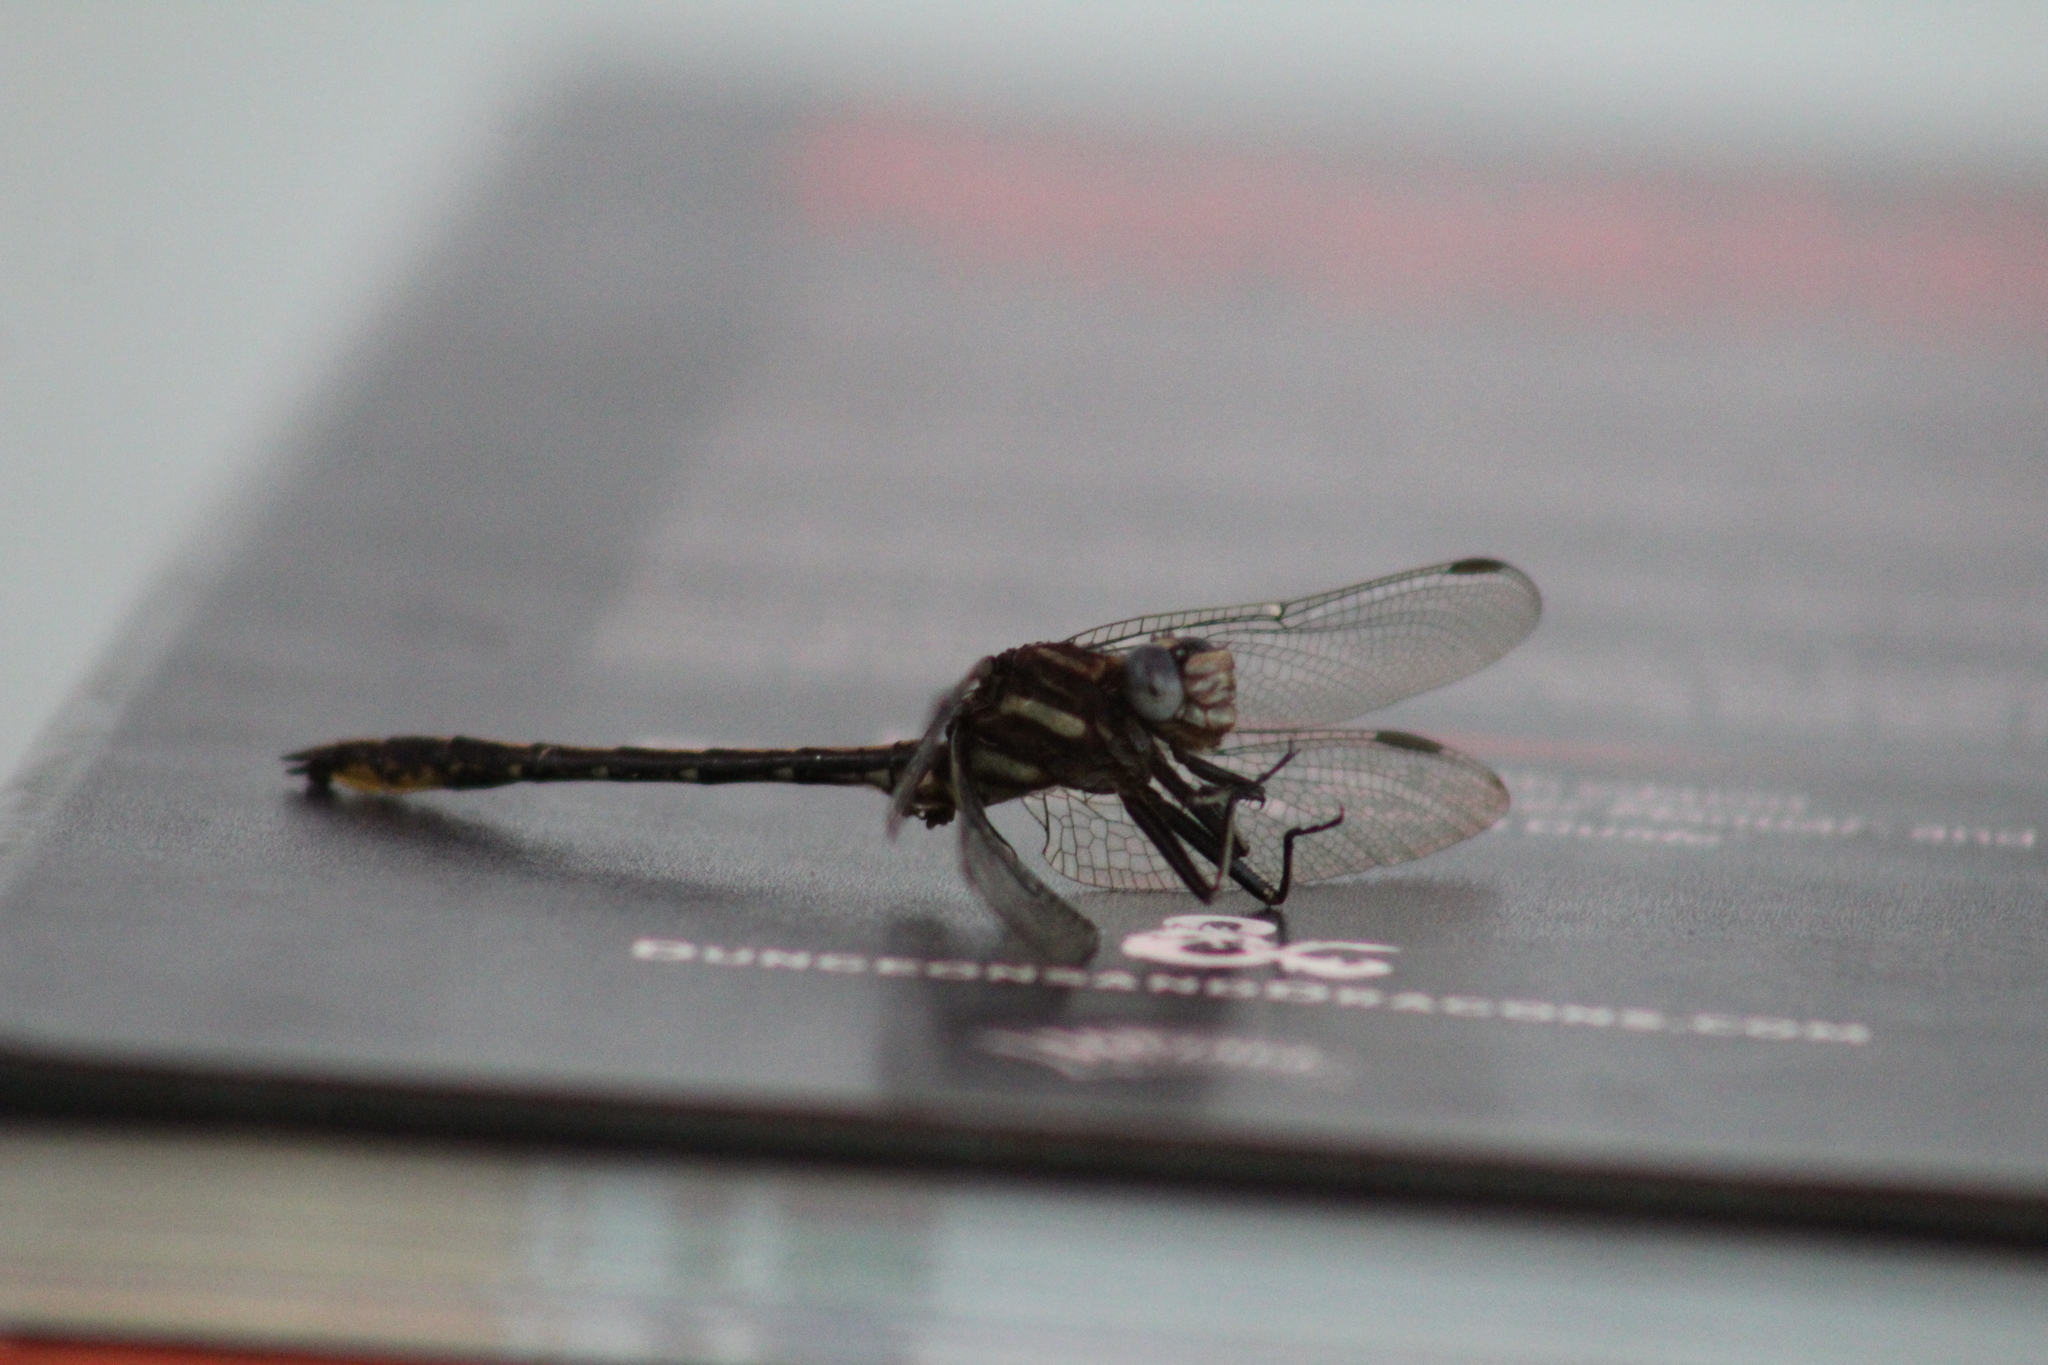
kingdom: Animalia
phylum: Arthropoda
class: Insecta
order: Odonata
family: Gomphidae
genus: Phanogomphus
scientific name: Phanogomphus exilis
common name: Lancet clubtail
